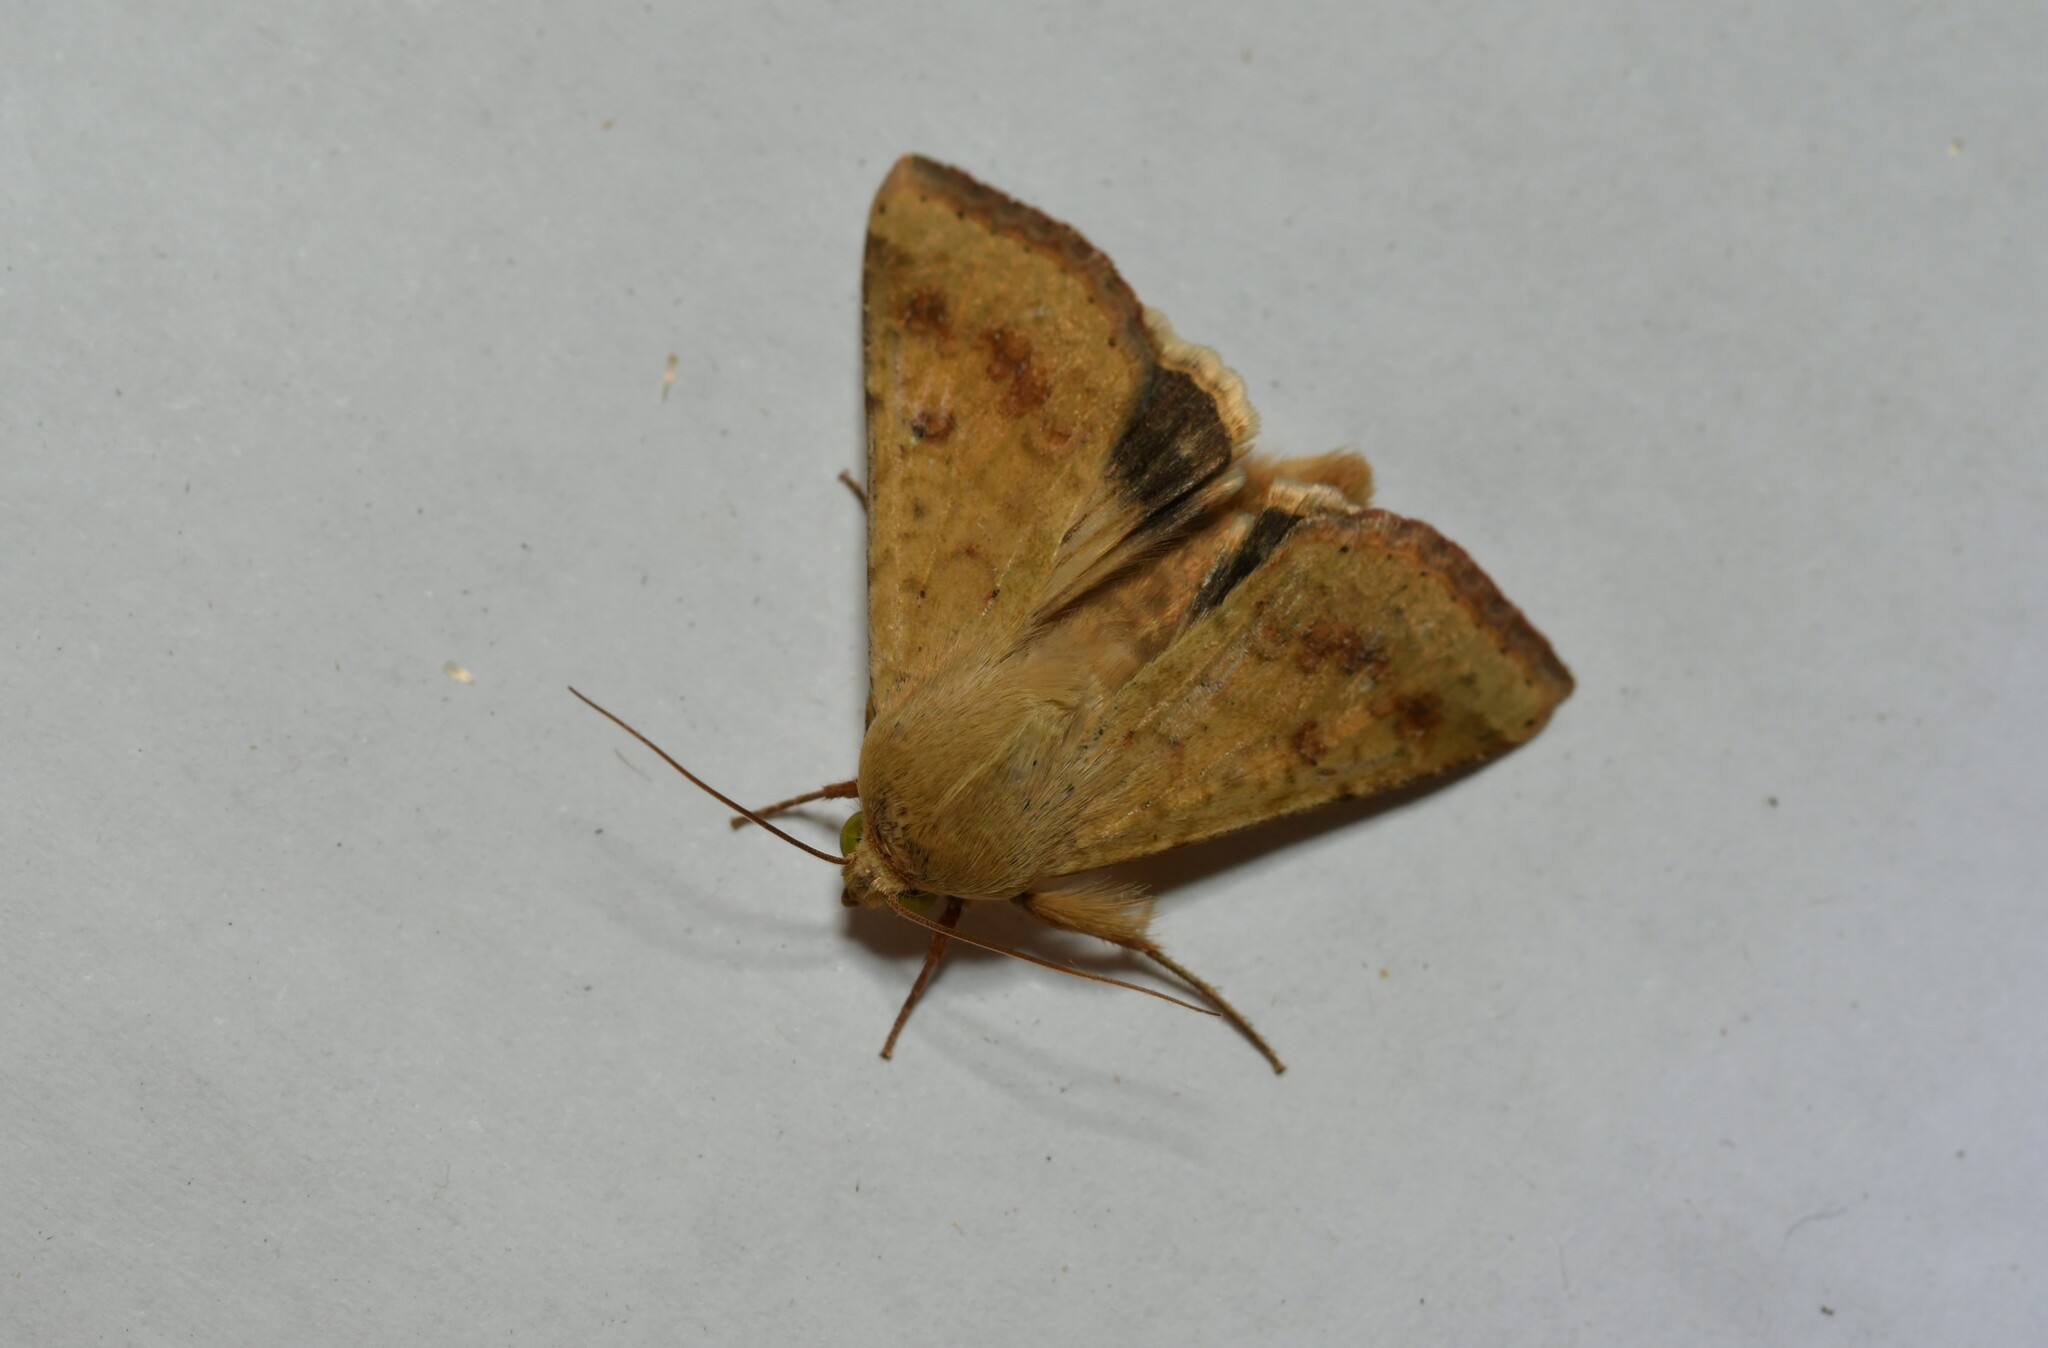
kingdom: Animalia
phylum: Arthropoda
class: Insecta
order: Lepidoptera
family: Noctuidae
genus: Helicoverpa
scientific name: Helicoverpa armigera
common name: Cotton bollworm
